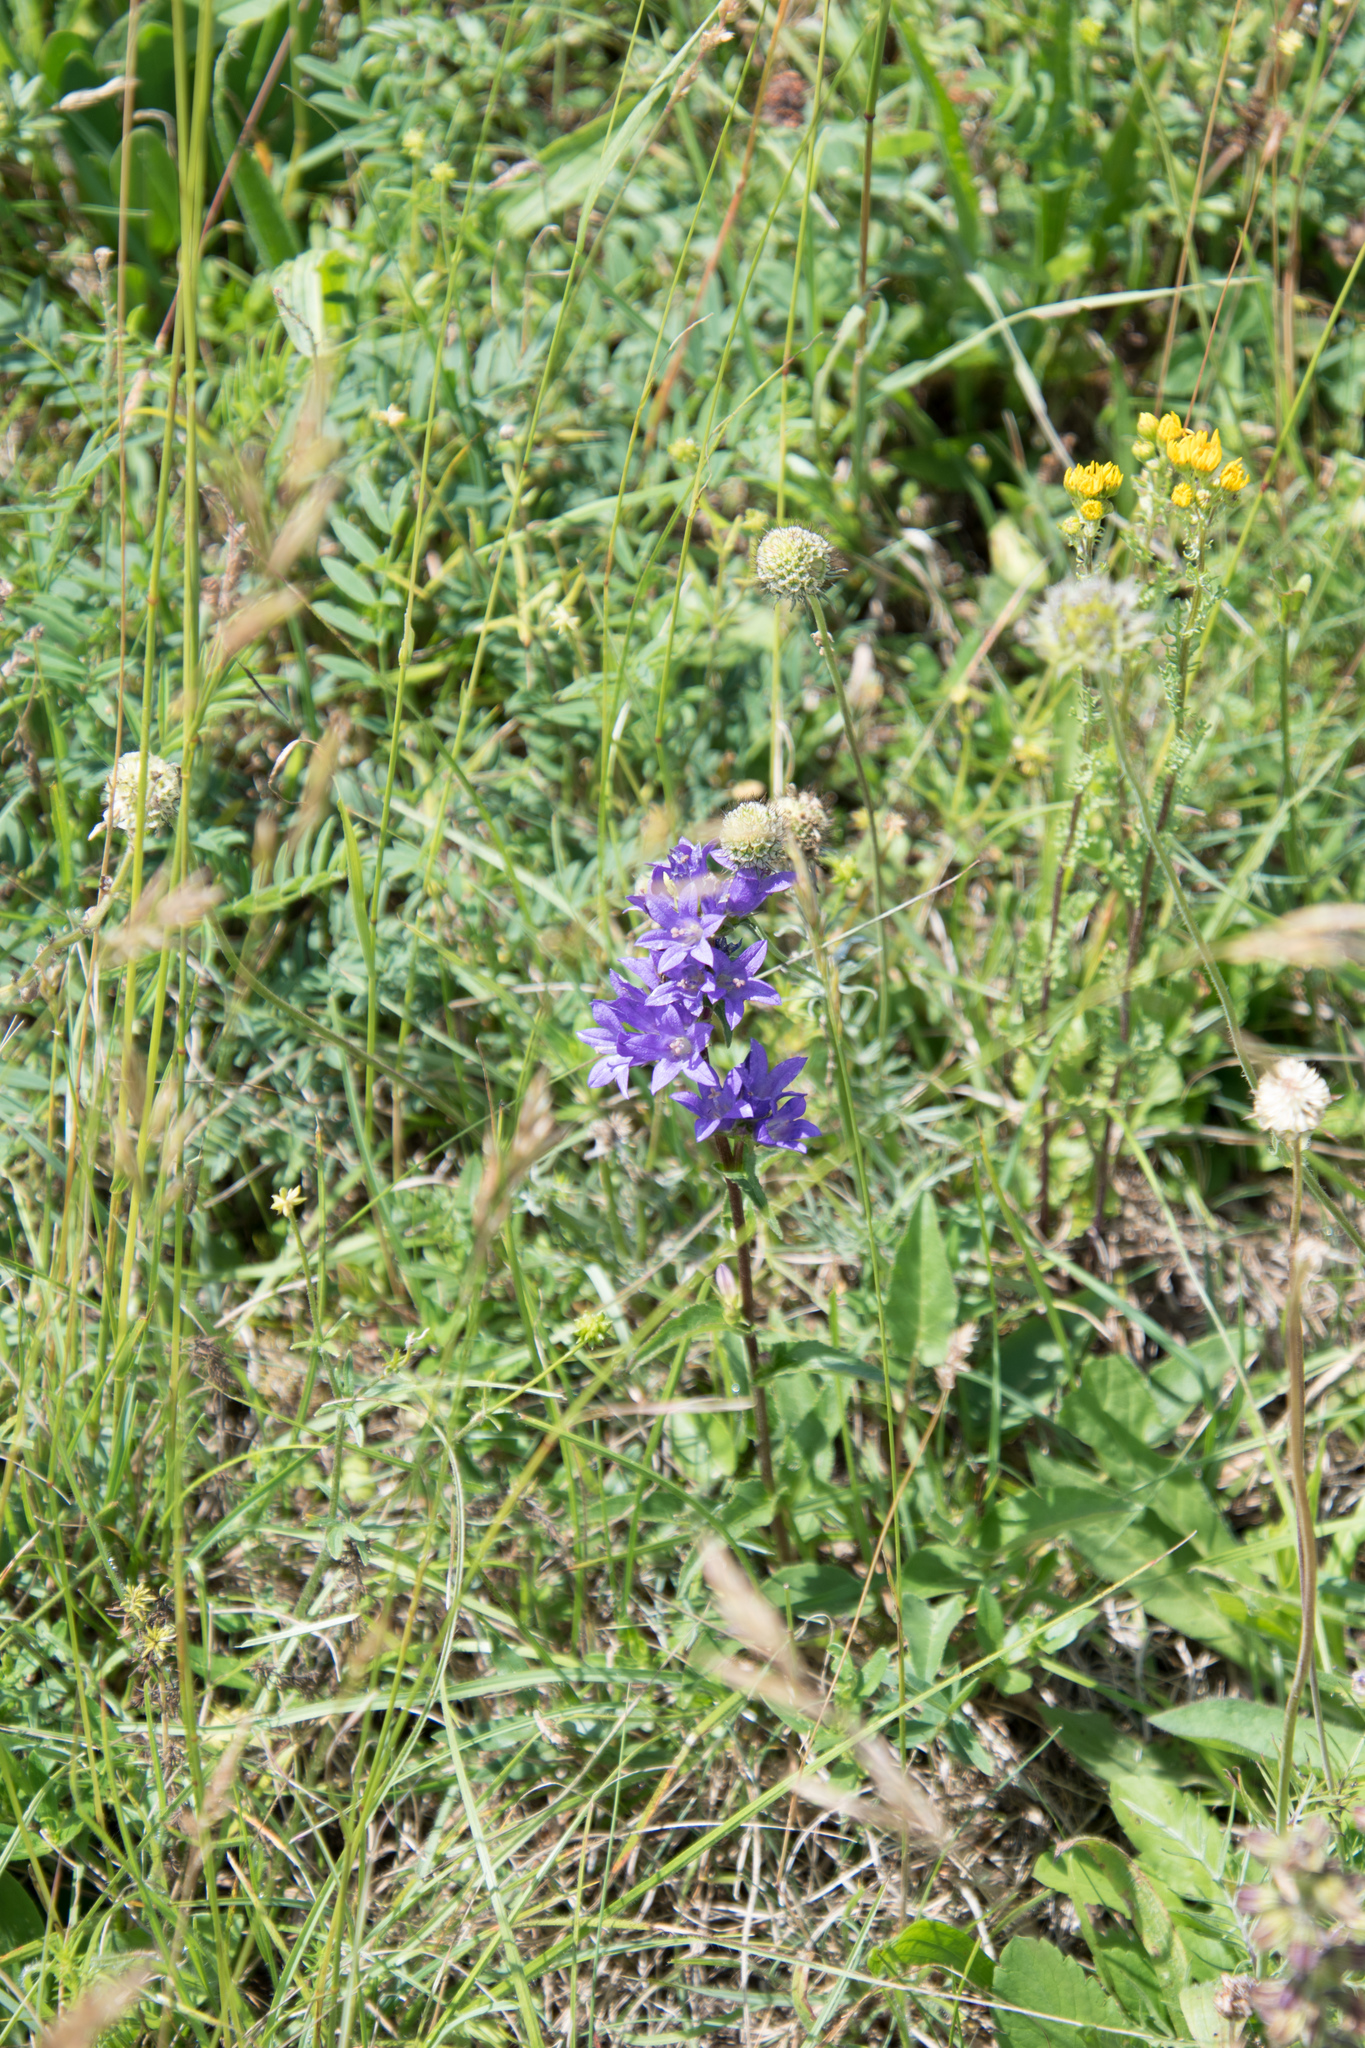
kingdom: Plantae
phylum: Tracheophyta
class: Magnoliopsida
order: Asterales
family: Campanulaceae
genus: Campanula
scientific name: Campanula glomerata
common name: Clustered bellflower
